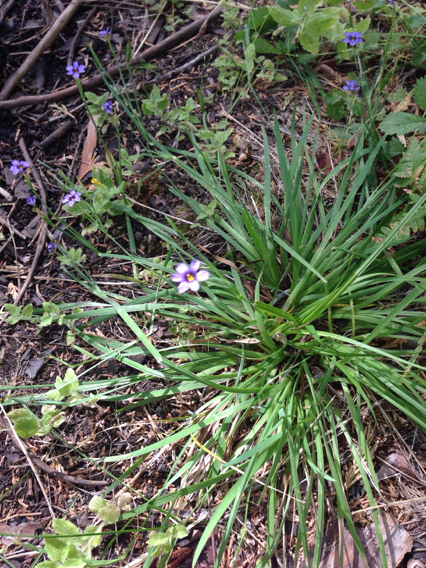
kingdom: Plantae
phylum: Tracheophyta
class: Liliopsida
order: Asparagales
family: Iridaceae
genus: Sisyrinchium
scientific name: Sisyrinchium bellum
